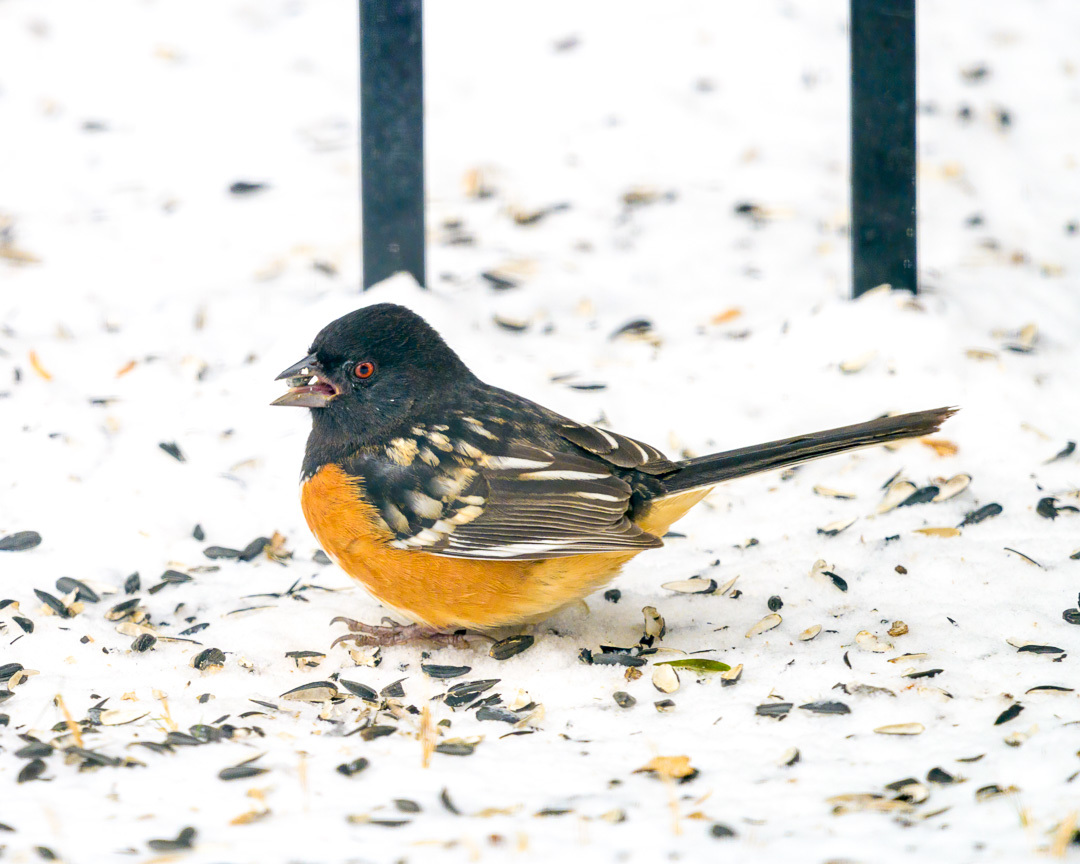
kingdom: Animalia
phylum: Chordata
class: Aves
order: Passeriformes
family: Passerellidae
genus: Pipilo
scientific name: Pipilo maculatus
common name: Spotted towhee
